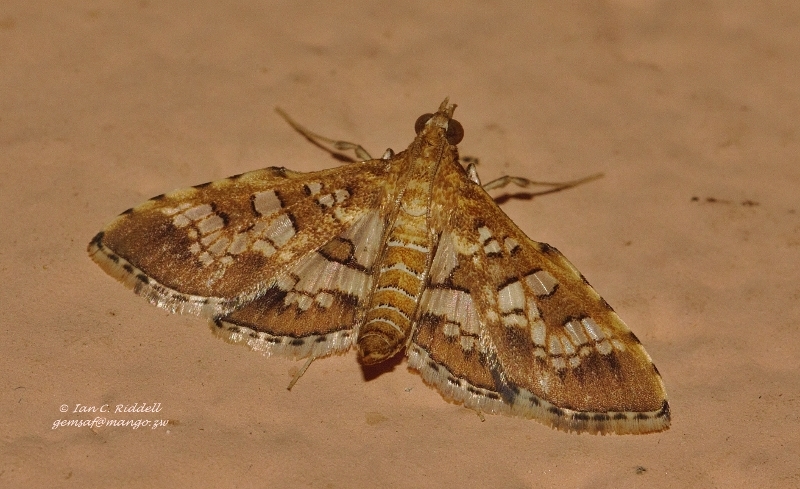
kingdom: Animalia
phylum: Arthropoda
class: Insecta
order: Lepidoptera
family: Crambidae
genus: Sameodes
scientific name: Sameodes cancellalis
